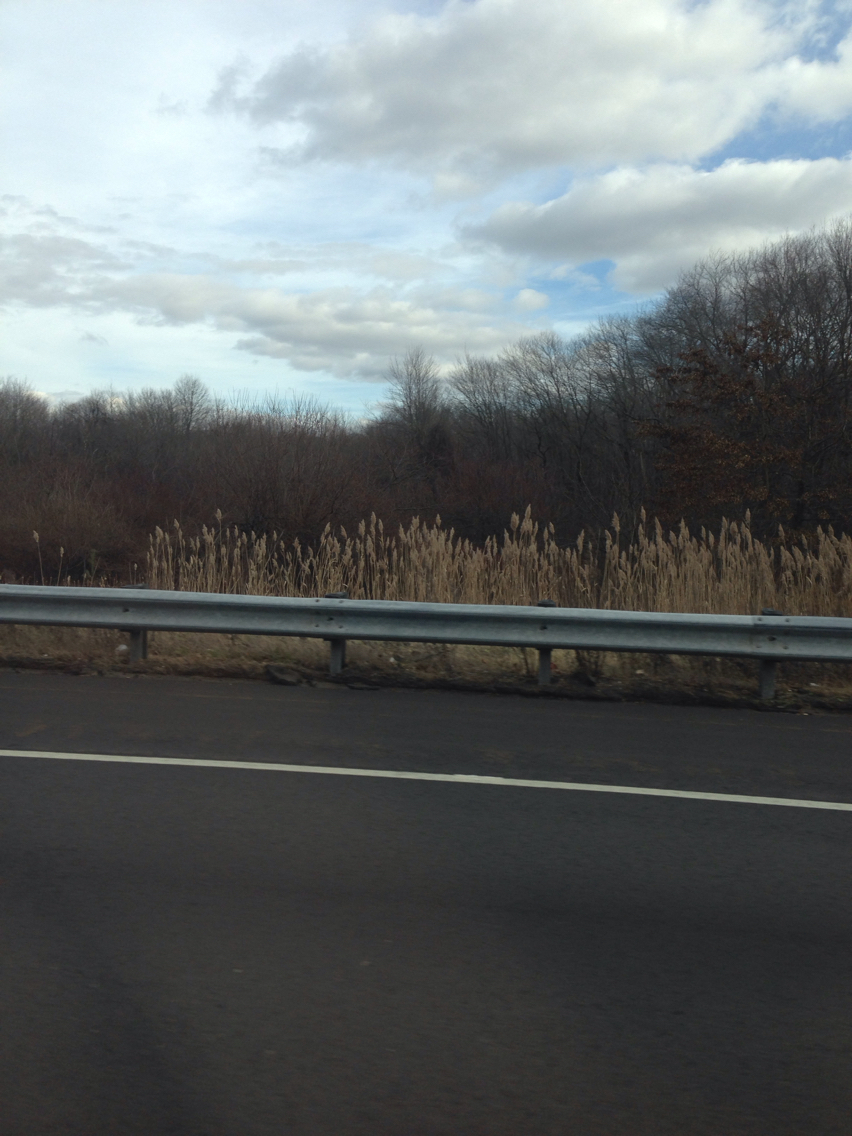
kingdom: Plantae
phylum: Tracheophyta
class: Liliopsida
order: Poales
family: Poaceae
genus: Phragmites
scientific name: Phragmites australis
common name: Common reed
